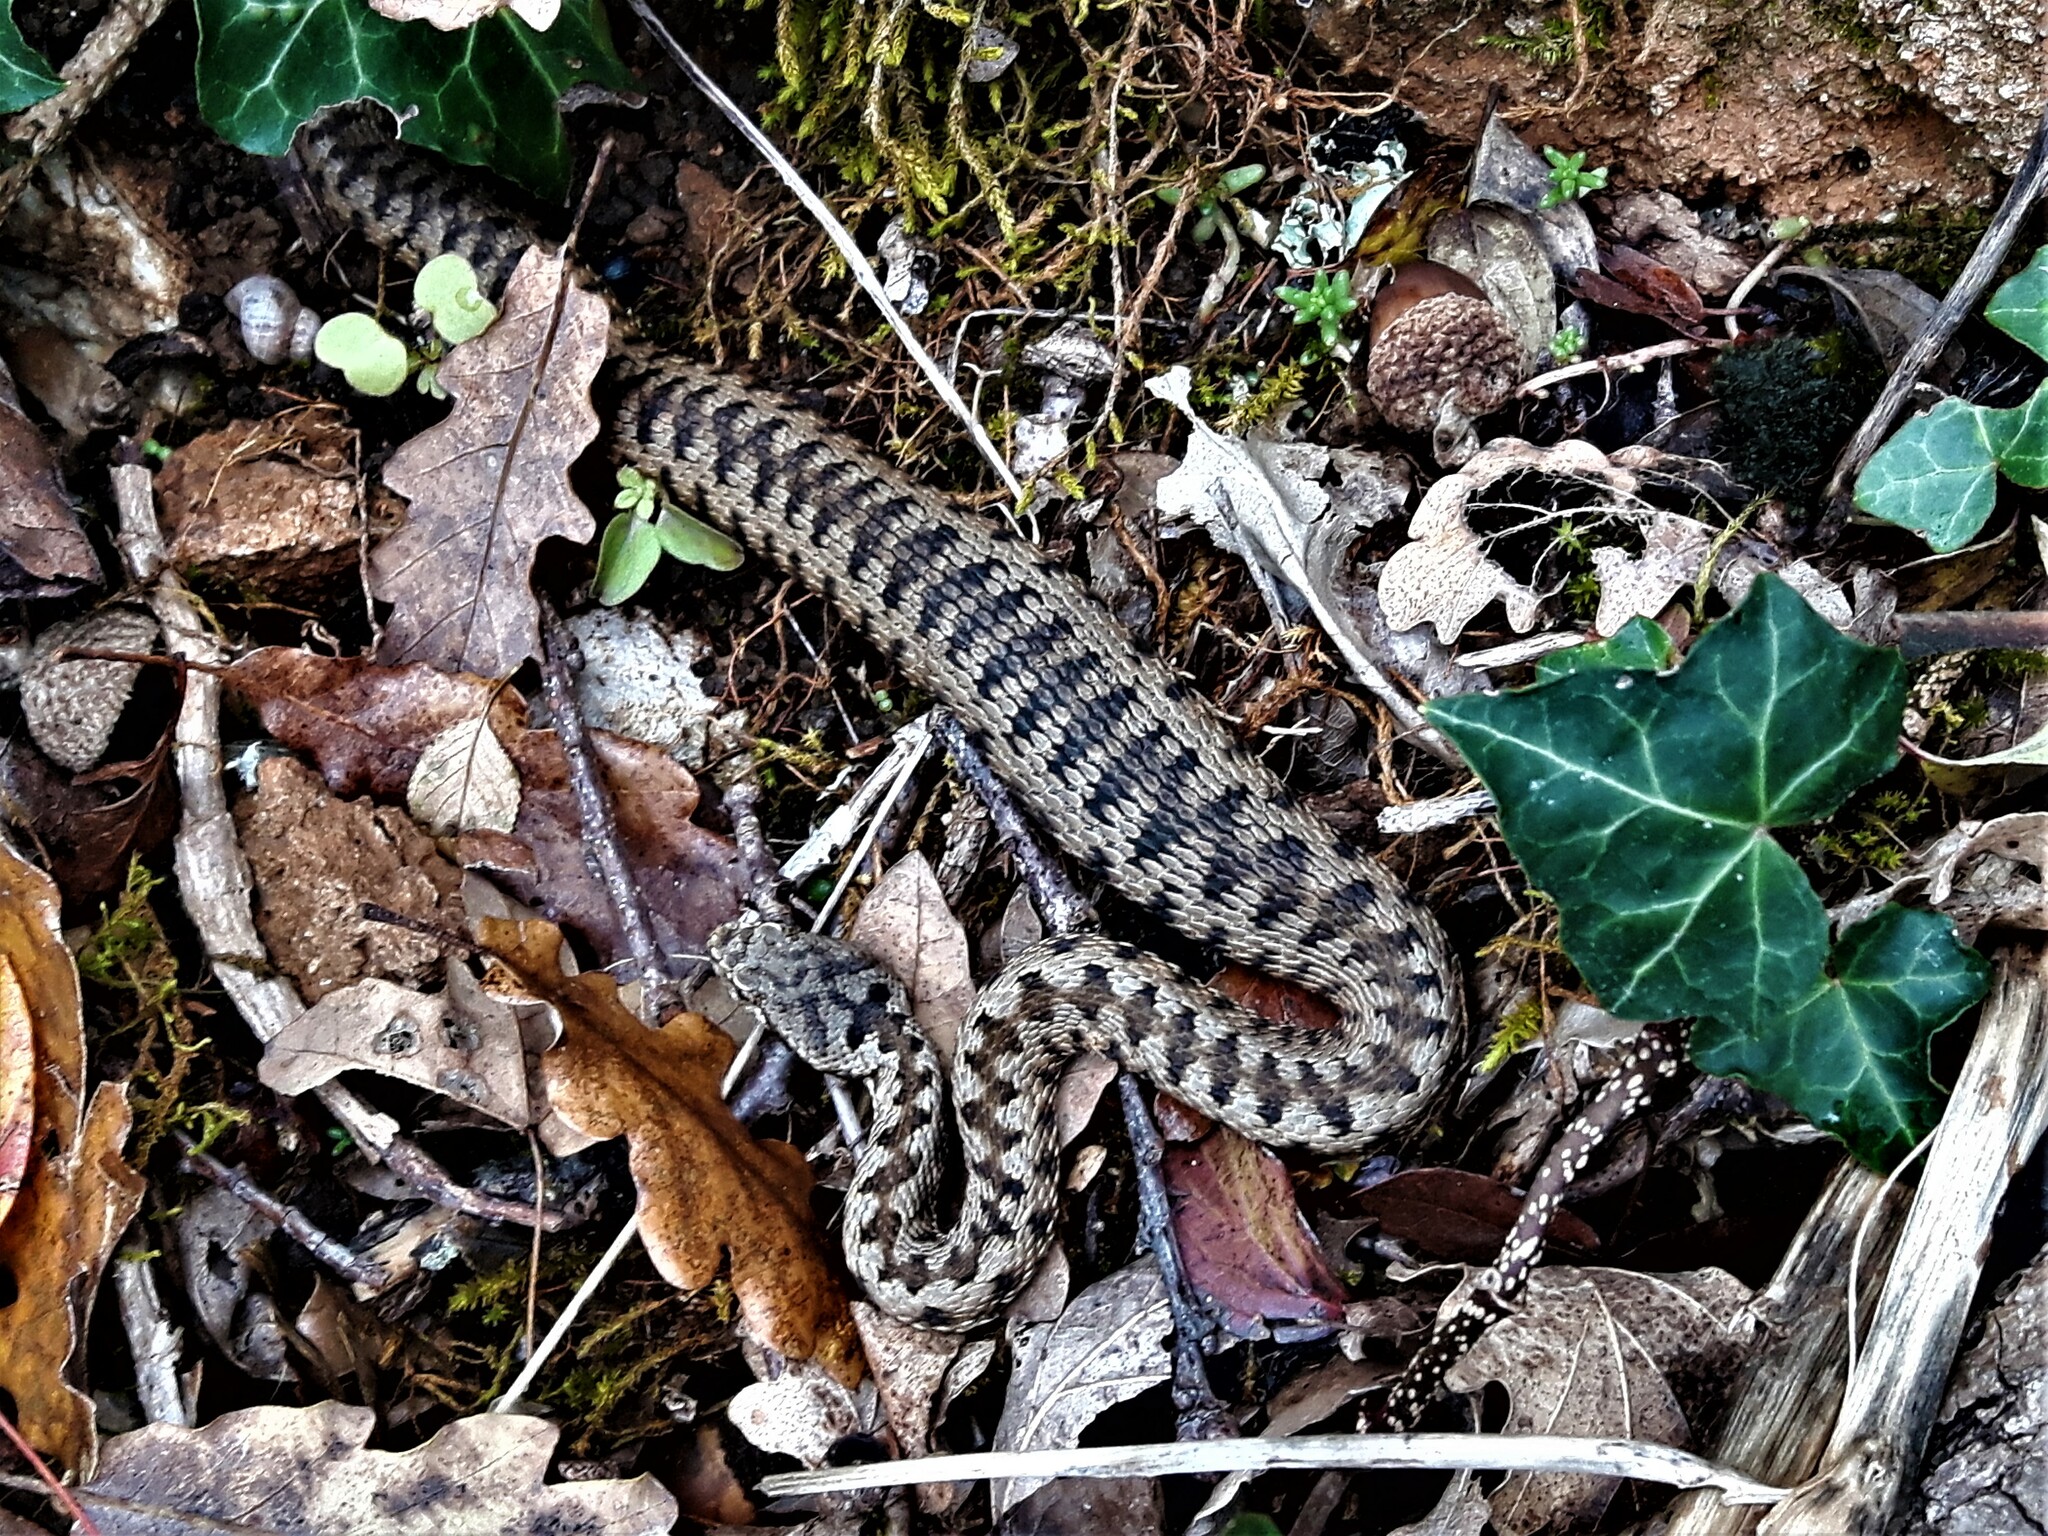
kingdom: Animalia
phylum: Chordata
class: Squamata
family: Viperidae
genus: Vipera
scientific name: Vipera aspis
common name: Asp viper
